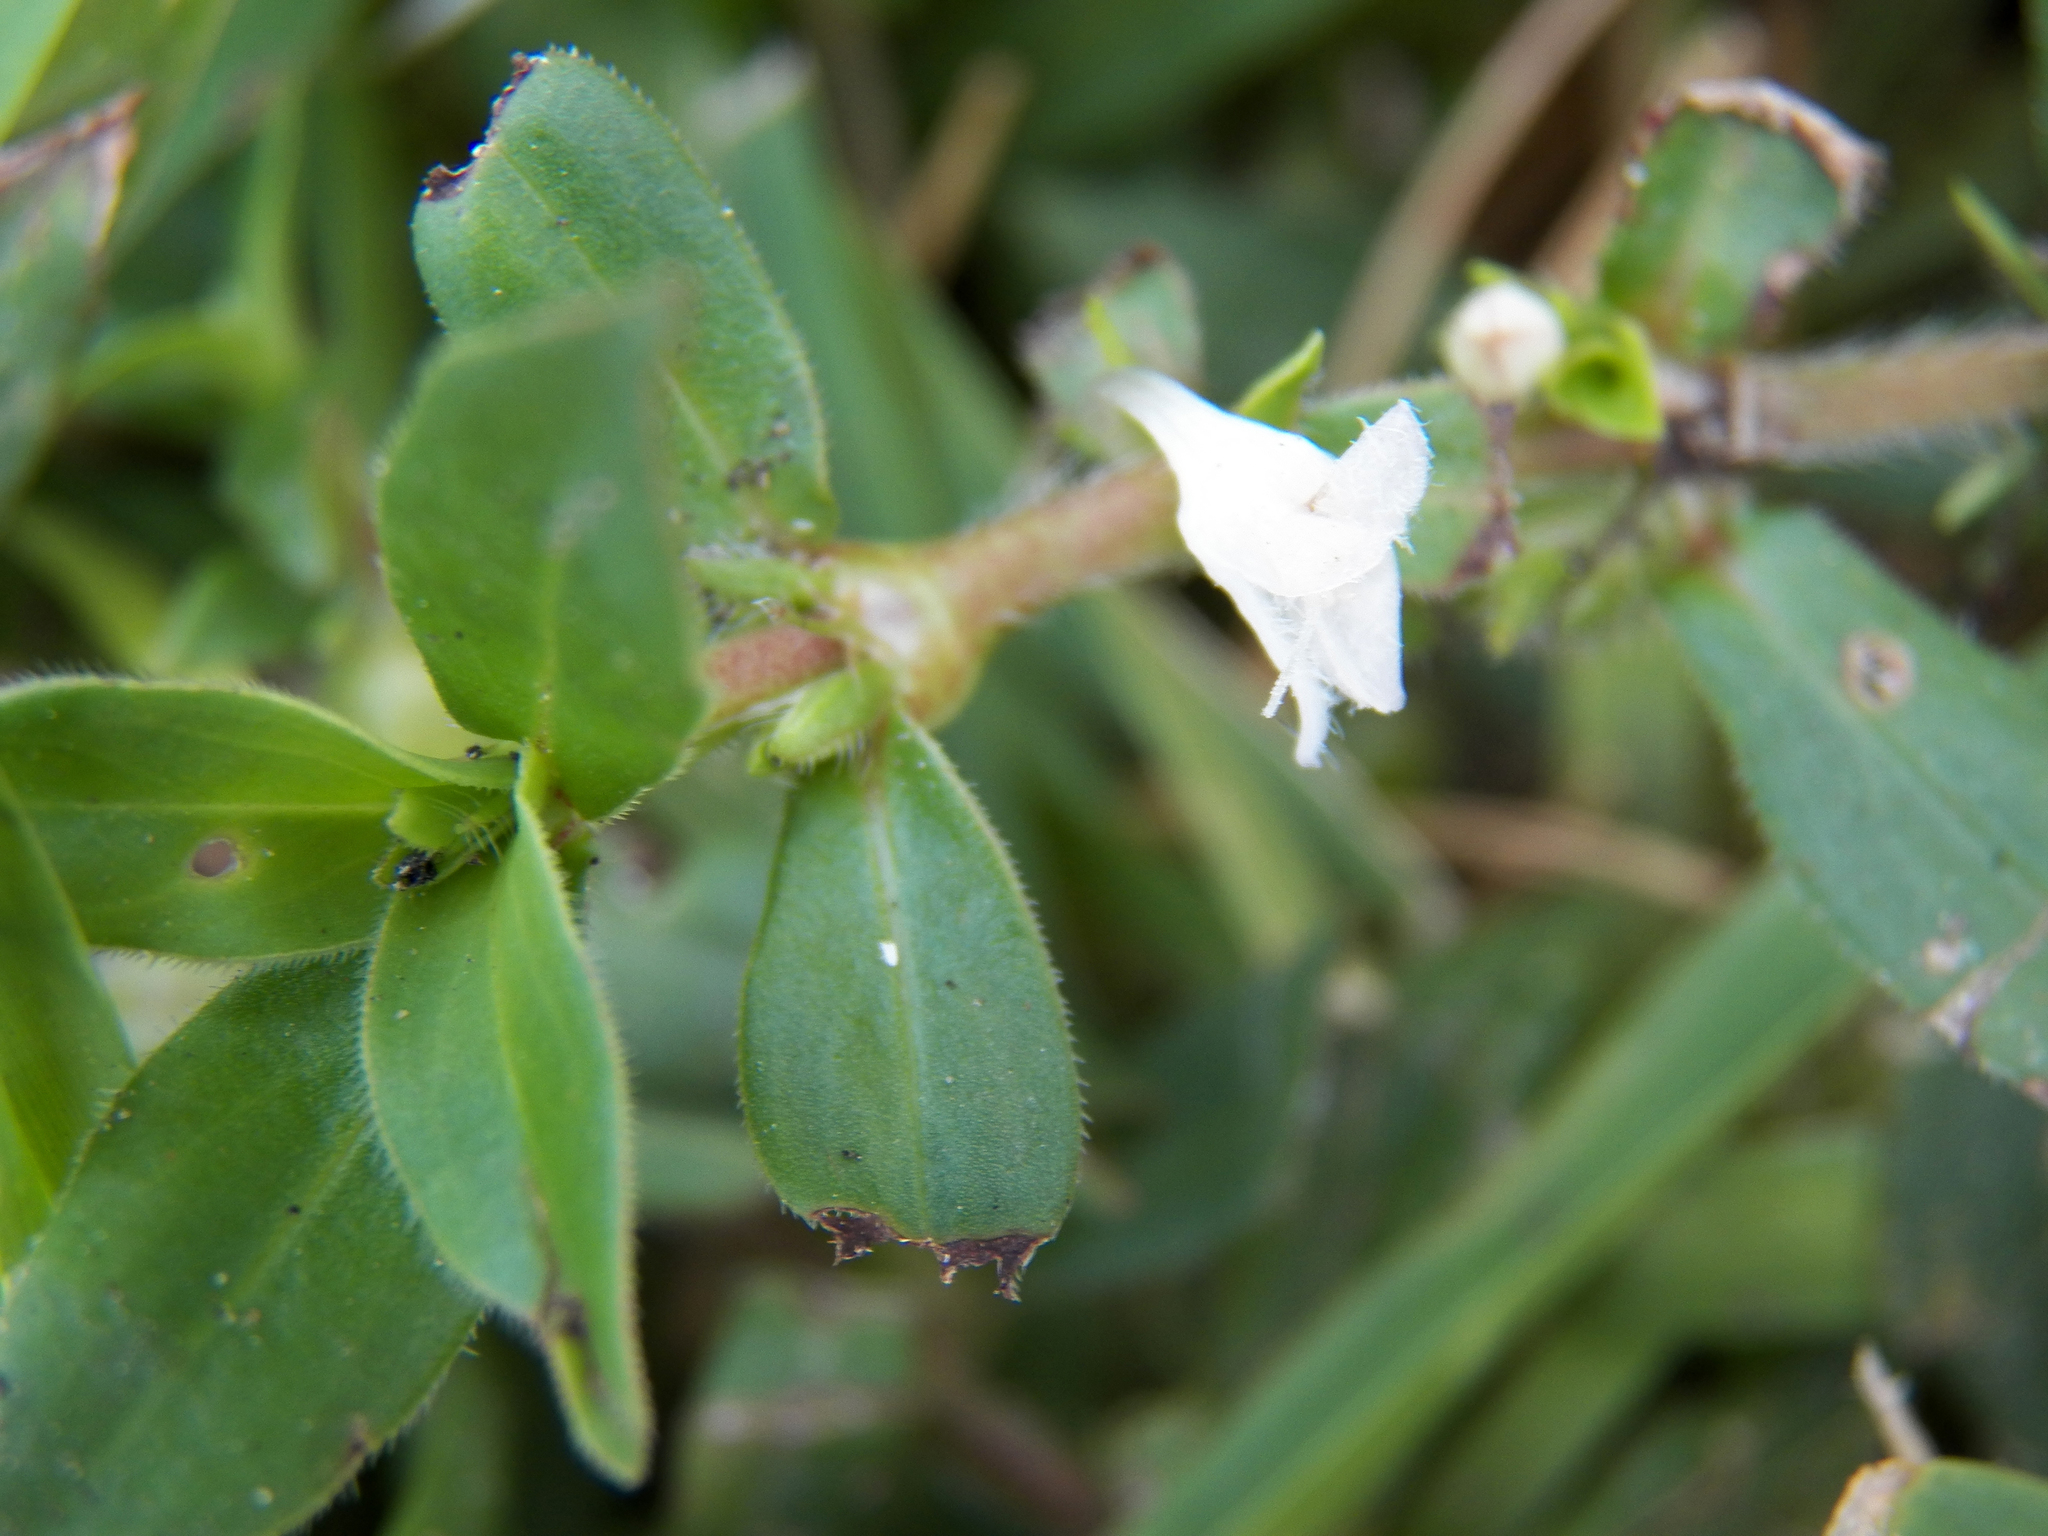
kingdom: Plantae
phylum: Tracheophyta
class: Magnoliopsida
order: Gentianales
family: Rubiaceae
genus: Diodia
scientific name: Diodia virginiana
